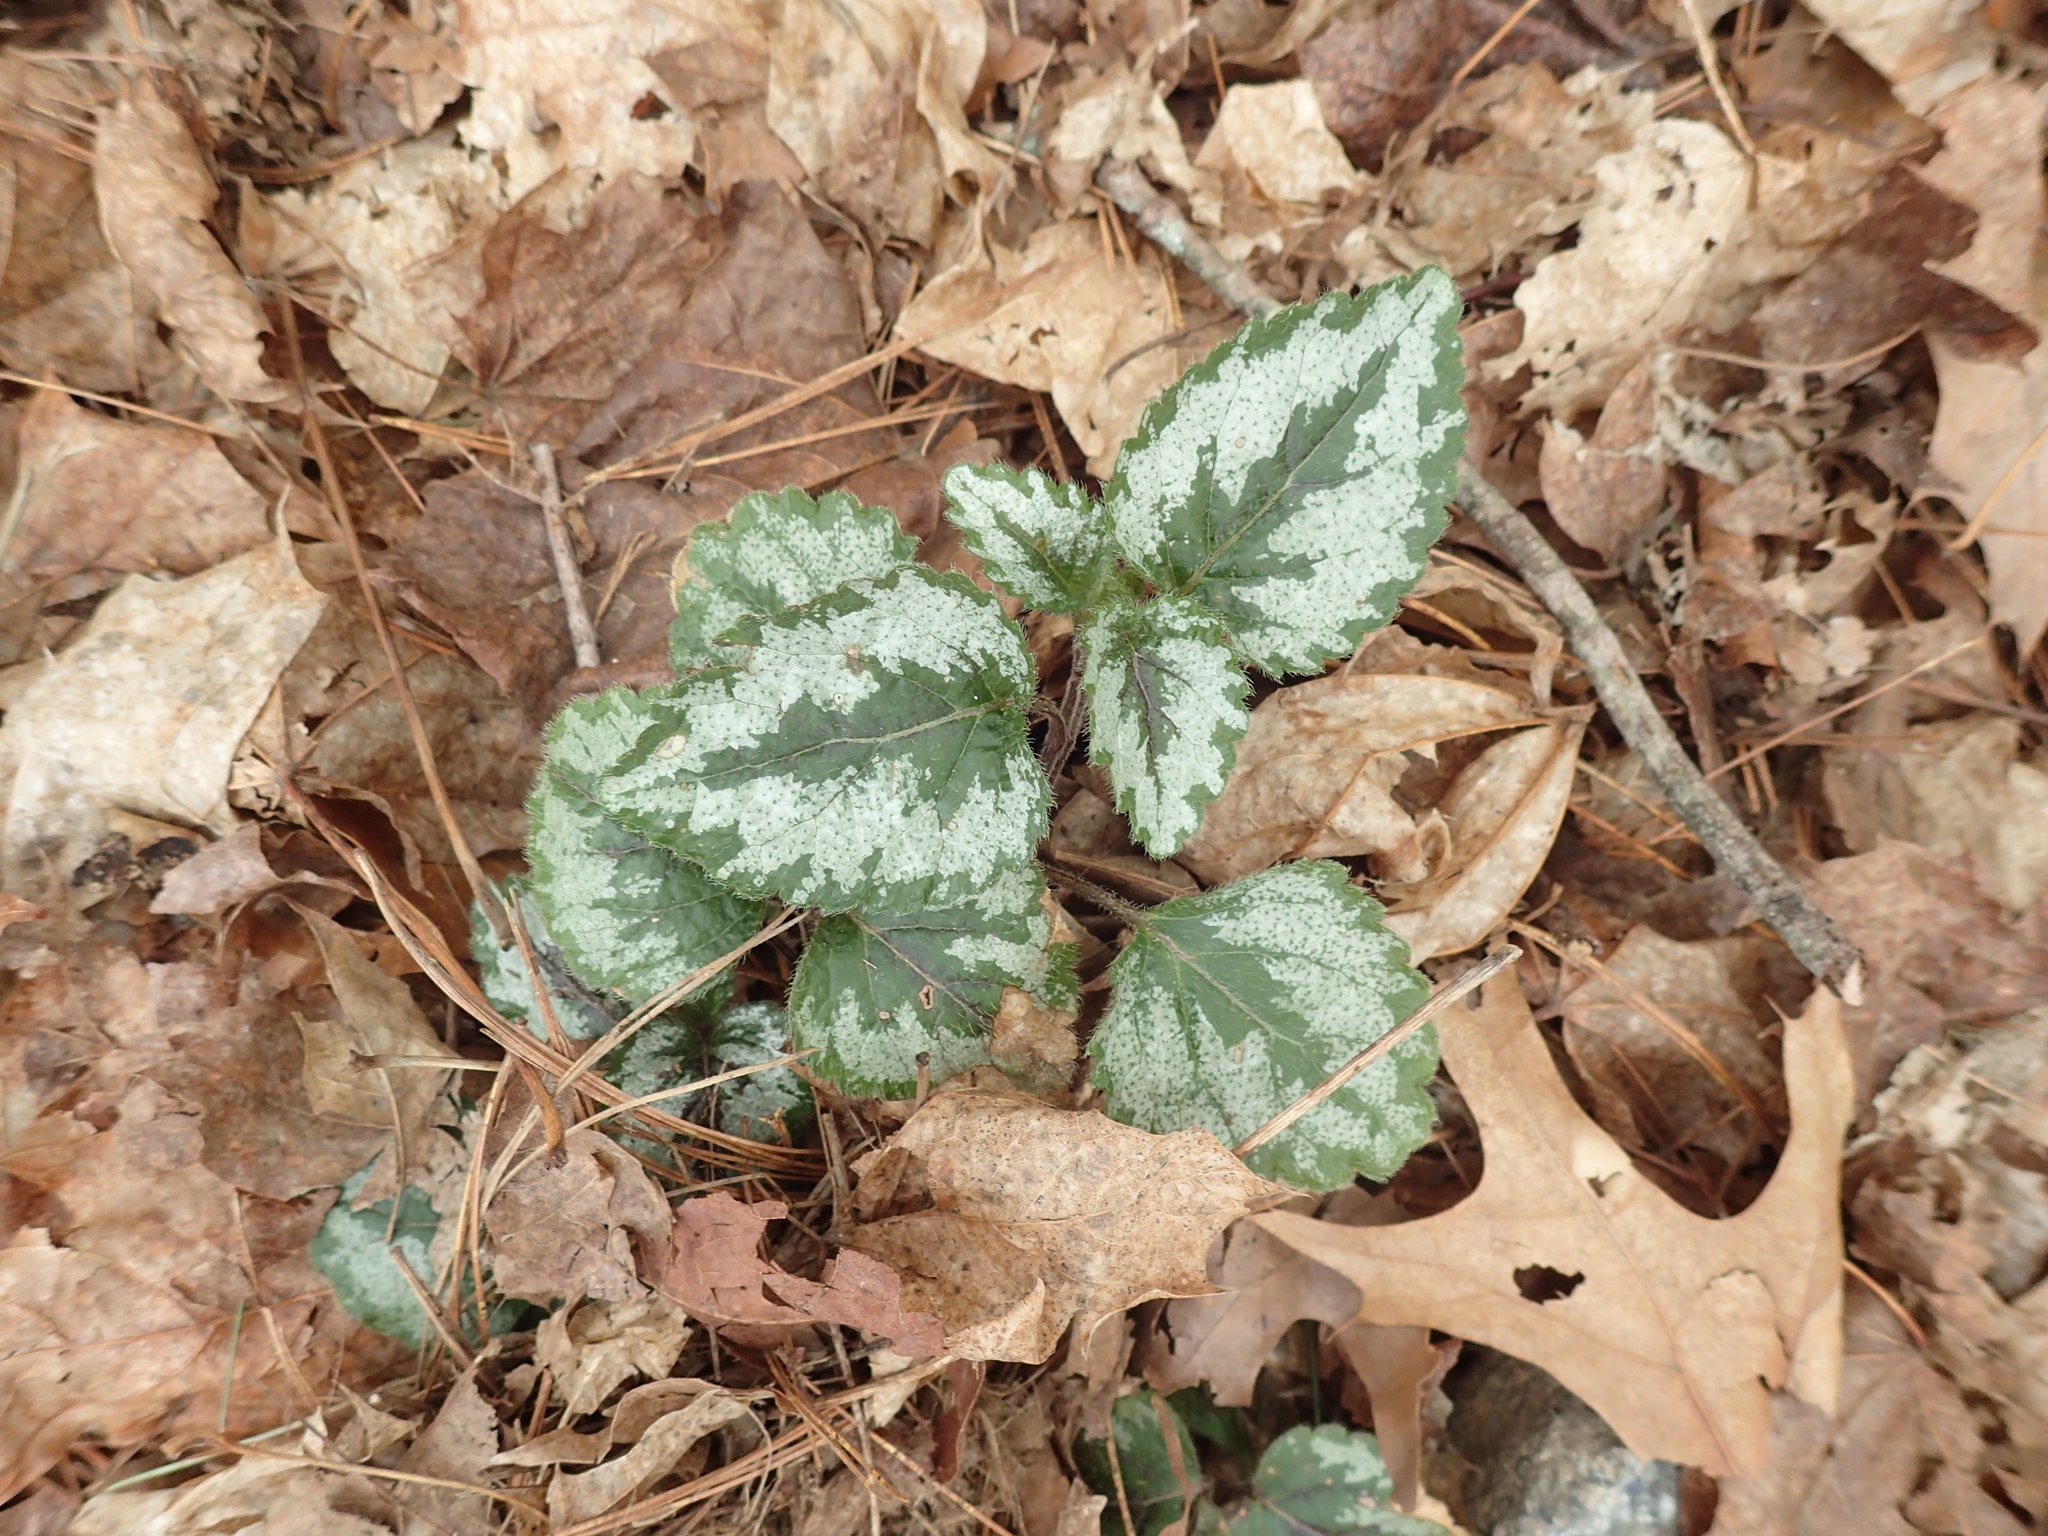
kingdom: Plantae
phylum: Tracheophyta
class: Magnoliopsida
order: Lamiales
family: Lamiaceae
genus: Lamium
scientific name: Lamium galeobdolon
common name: Yellow archangel
